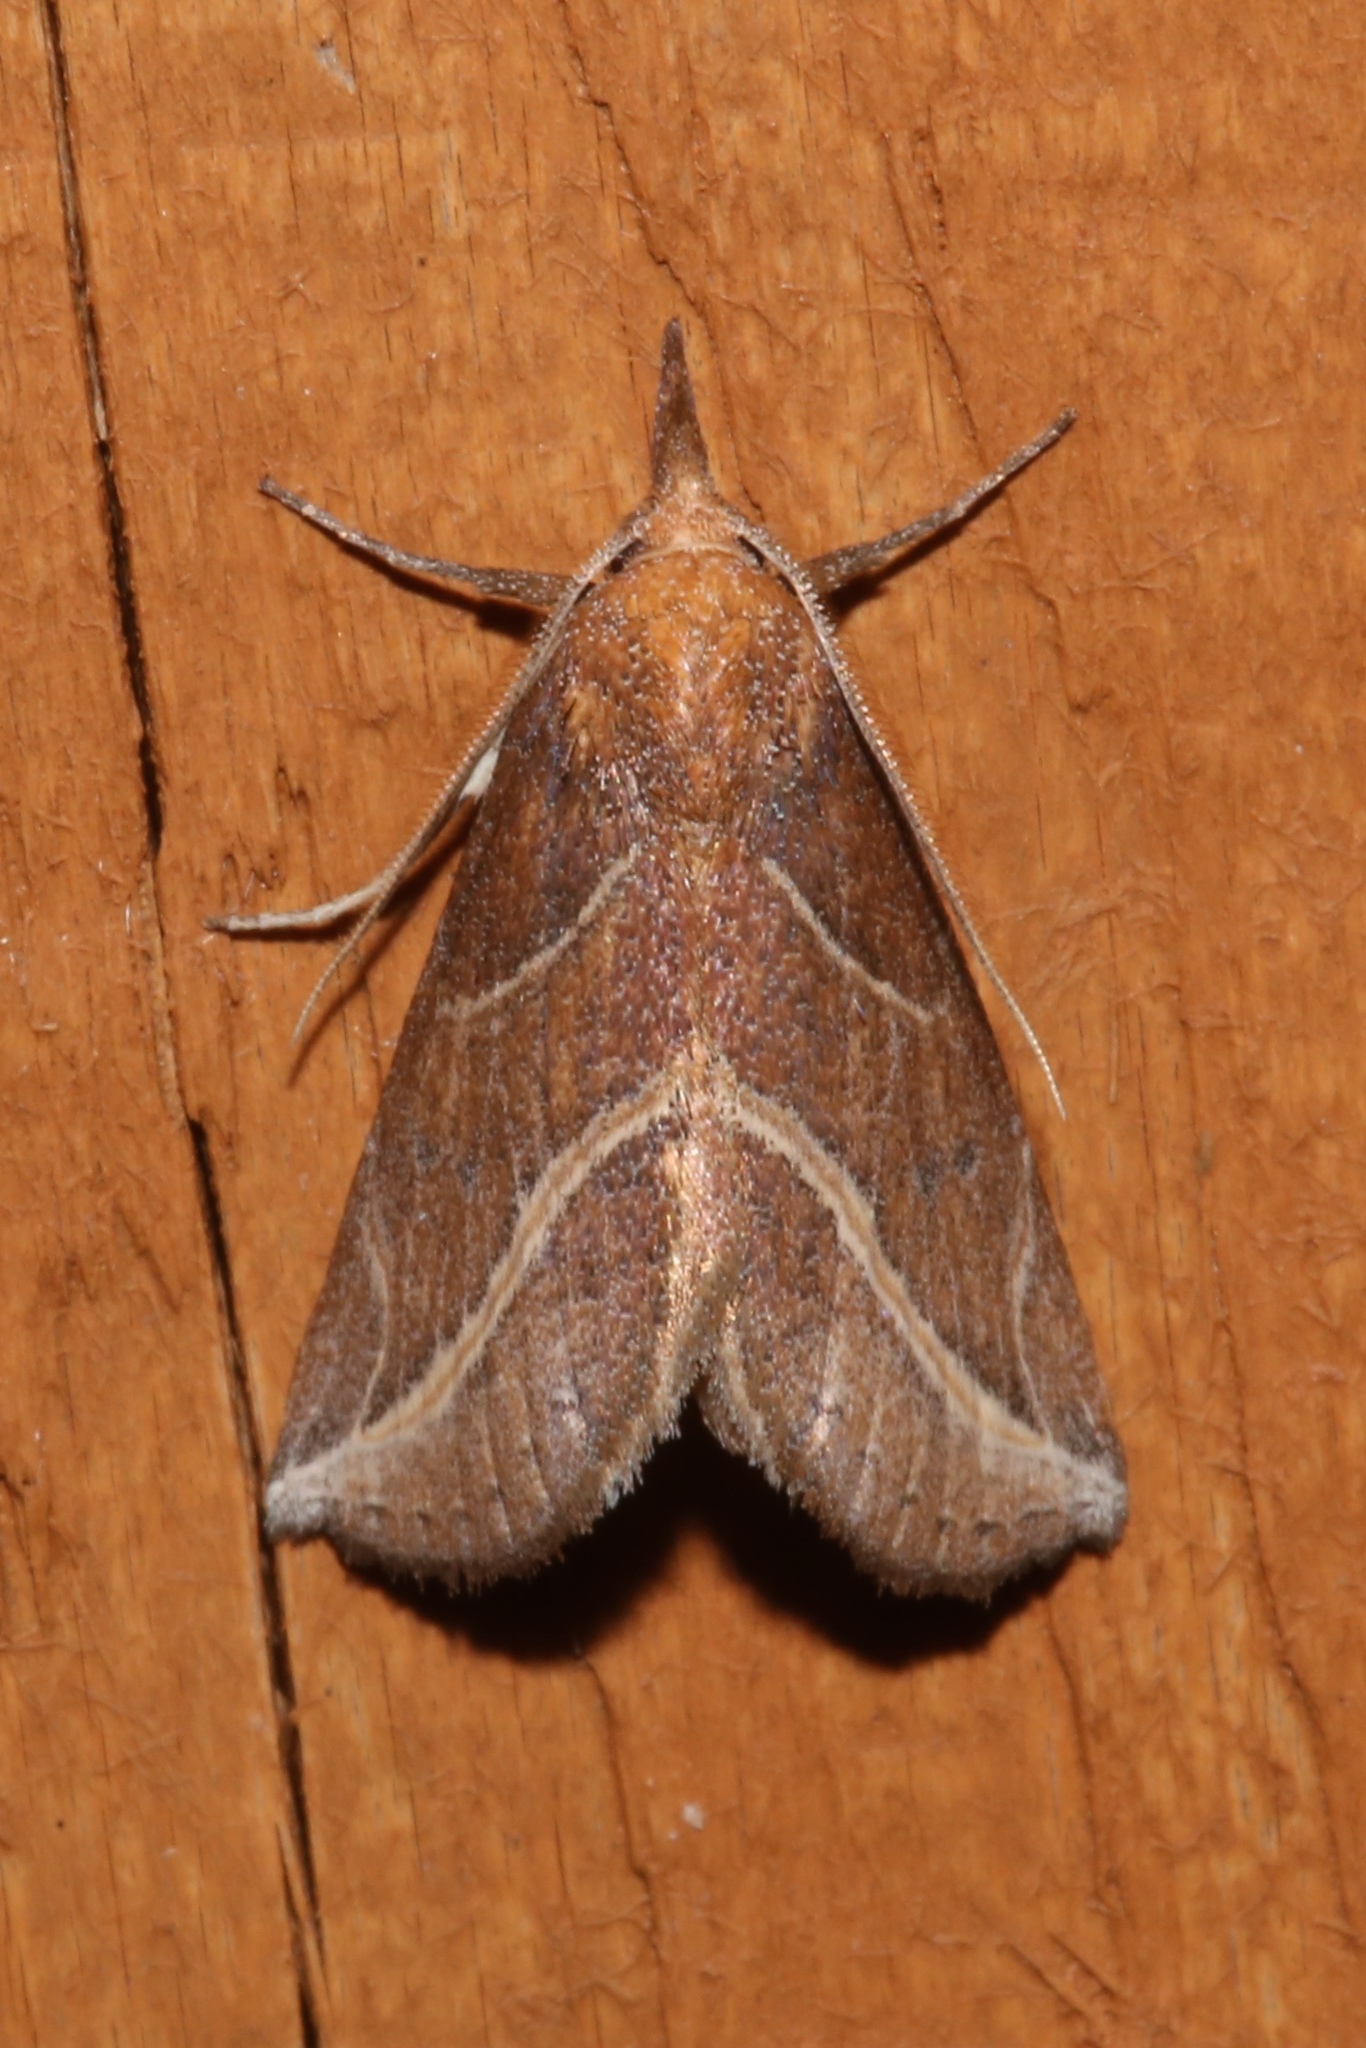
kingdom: Animalia
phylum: Arthropoda
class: Insecta
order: Lepidoptera
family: Erebidae
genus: Phyprosopus
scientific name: Phyprosopus callitrichoides
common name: Curved-lined owlet
